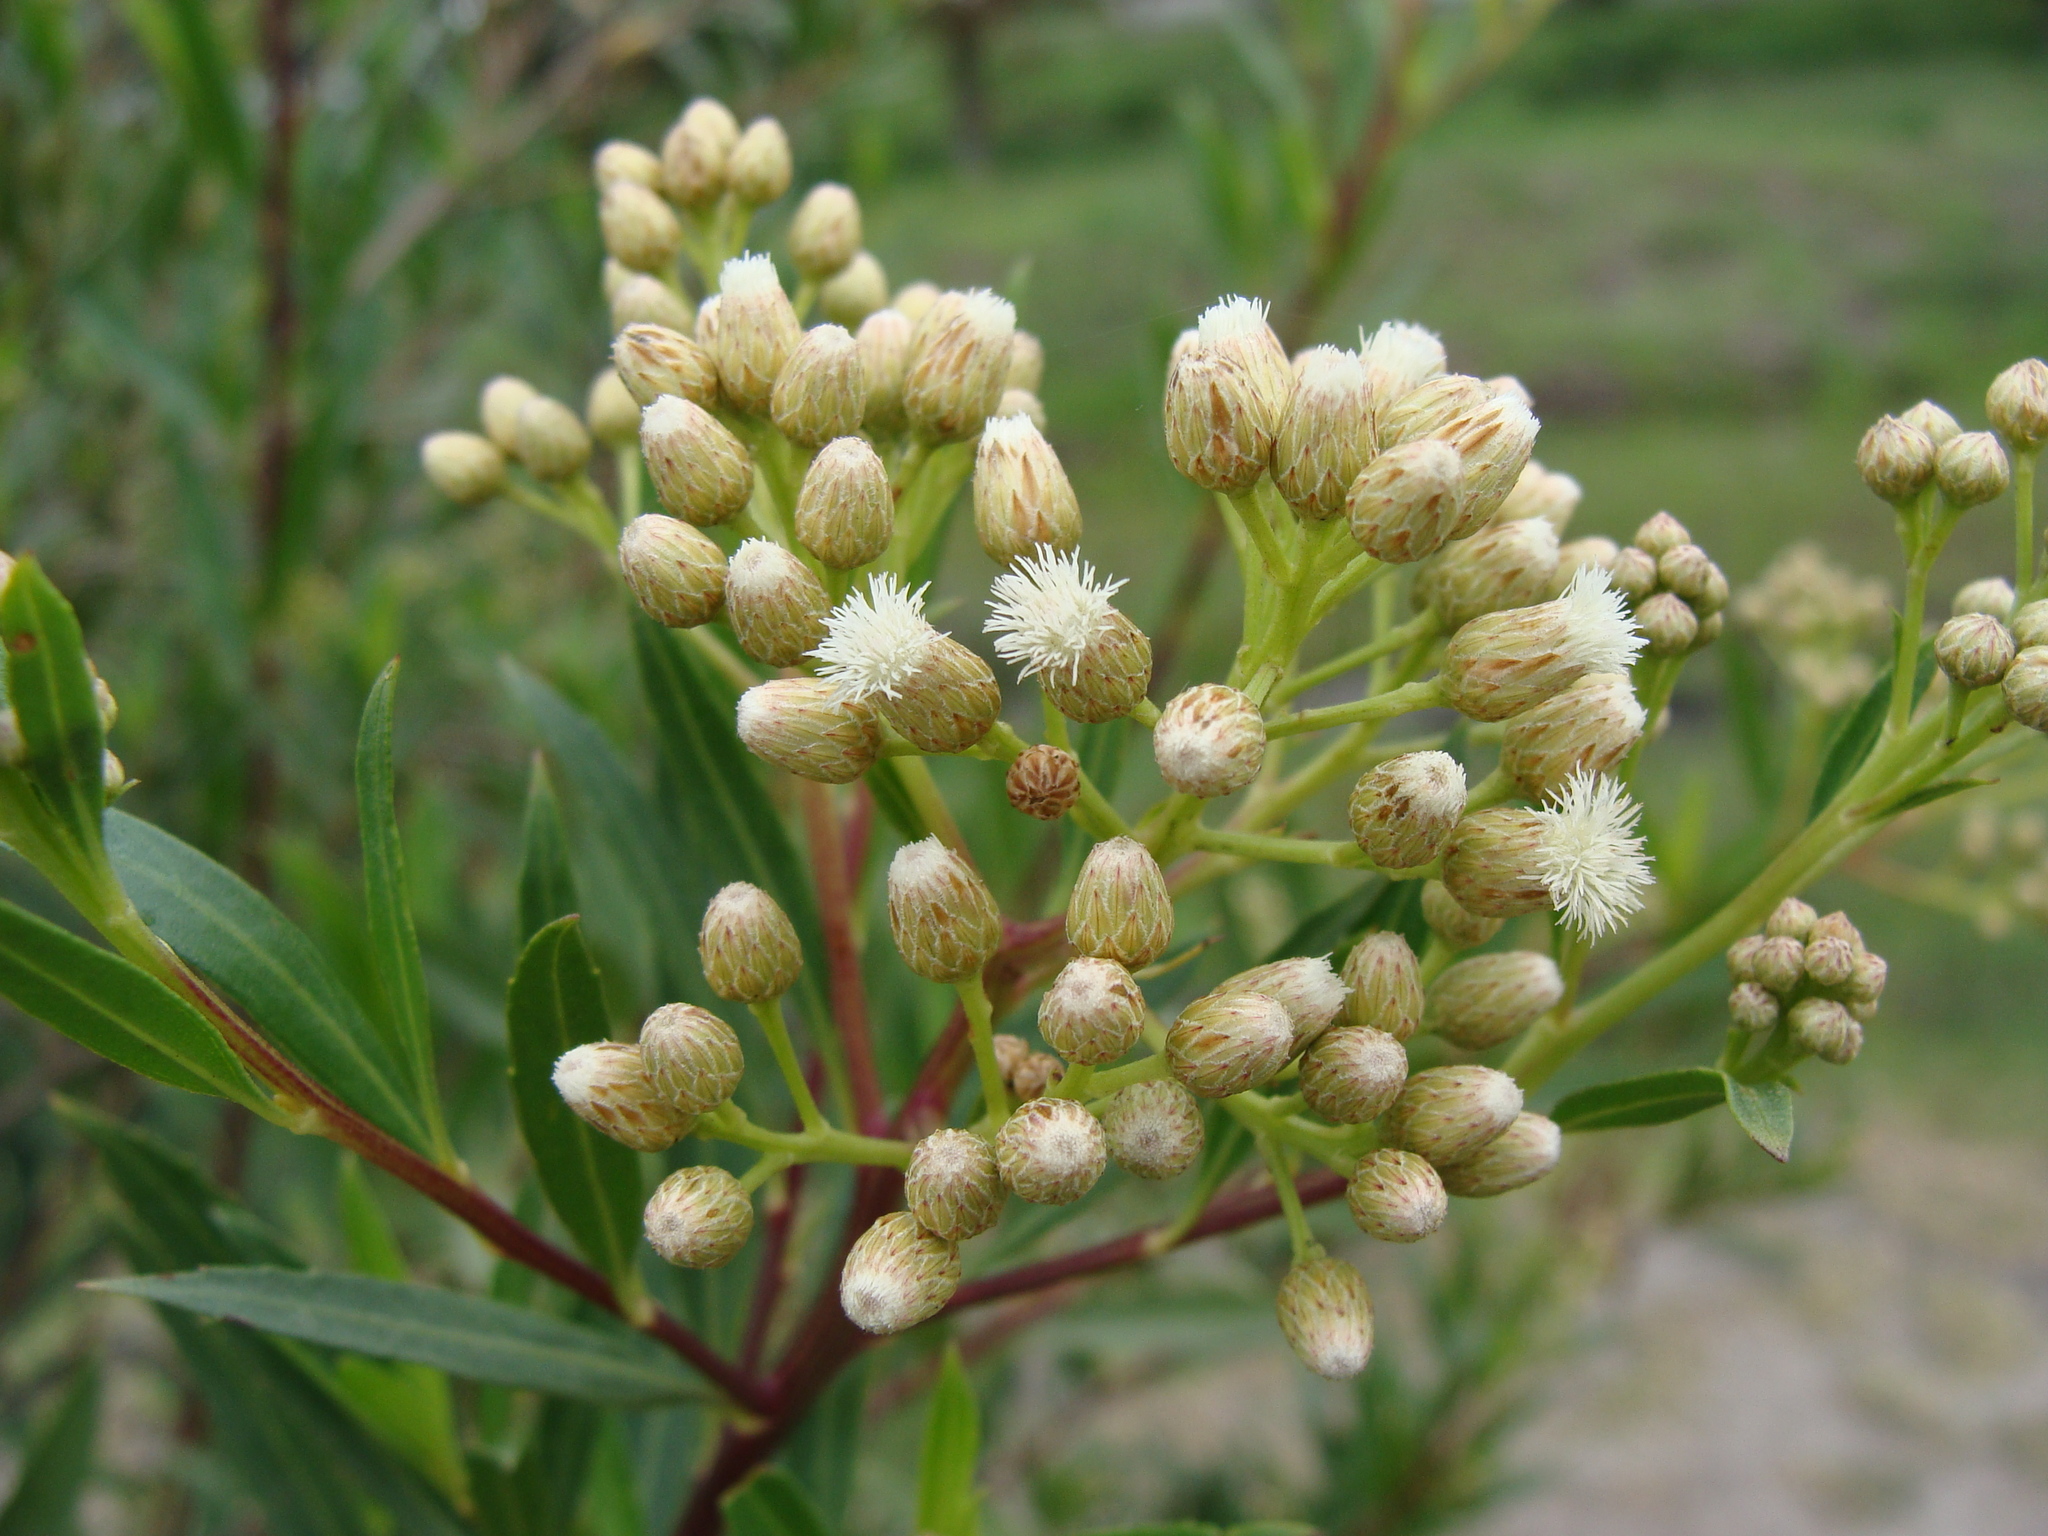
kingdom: Plantae
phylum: Tracheophyta
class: Magnoliopsida
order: Asterales
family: Asteraceae
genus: Baccharis
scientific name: Baccharis salicifolia
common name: Sticky baccharis
